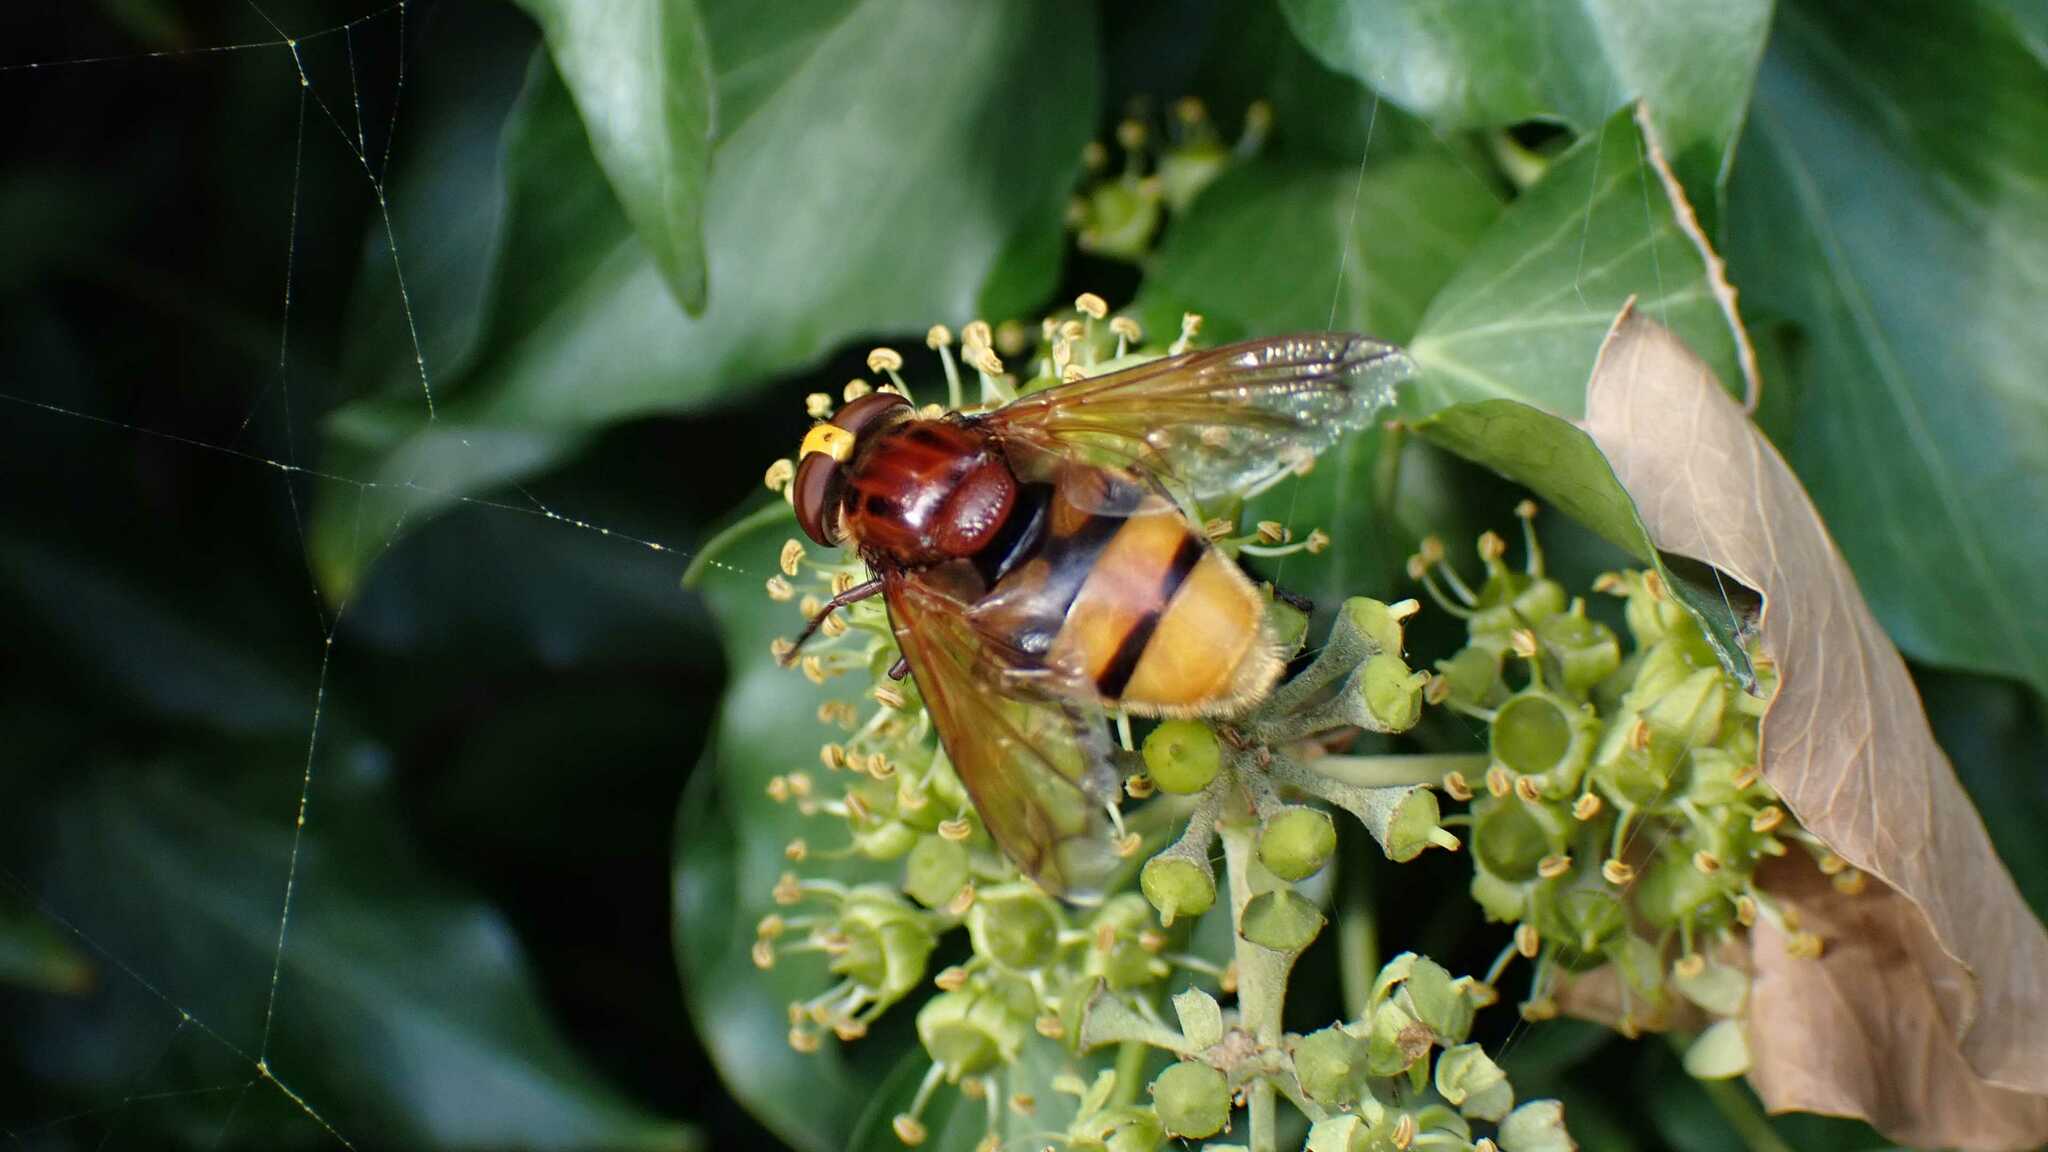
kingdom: Animalia
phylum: Arthropoda
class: Insecta
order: Diptera
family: Syrphidae
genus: Volucella
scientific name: Volucella zonaria
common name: Hornet hoverfly
